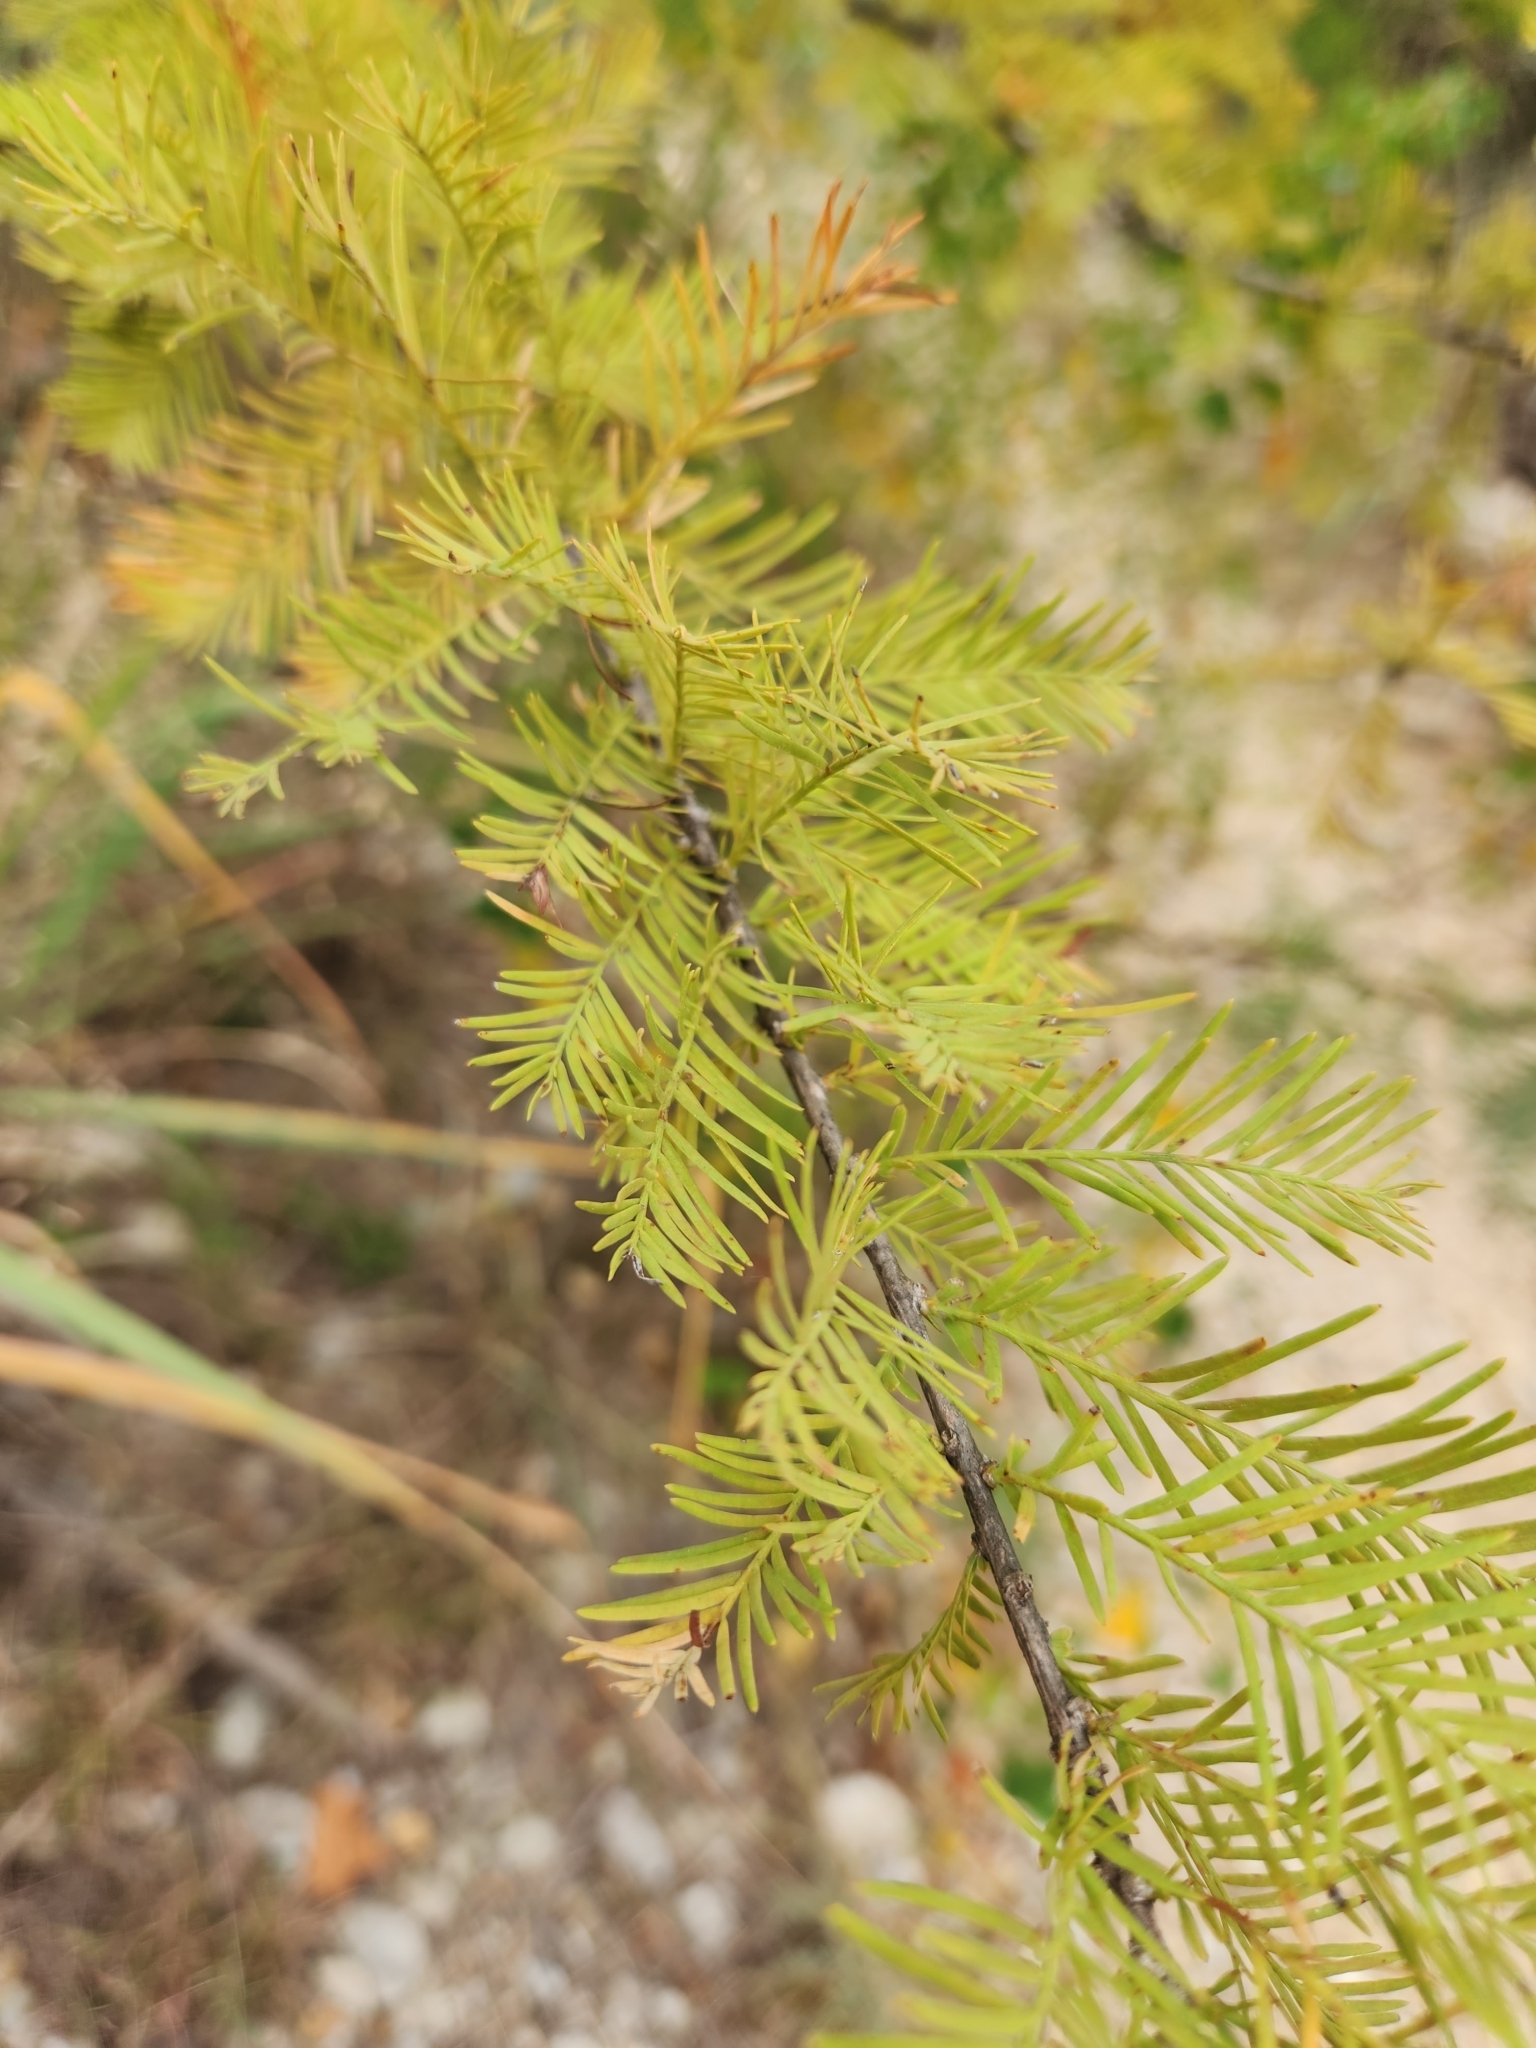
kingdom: Plantae
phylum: Tracheophyta
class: Pinopsida
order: Pinales
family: Cupressaceae
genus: Taxodium
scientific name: Taxodium distichum
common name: Bald cypress
